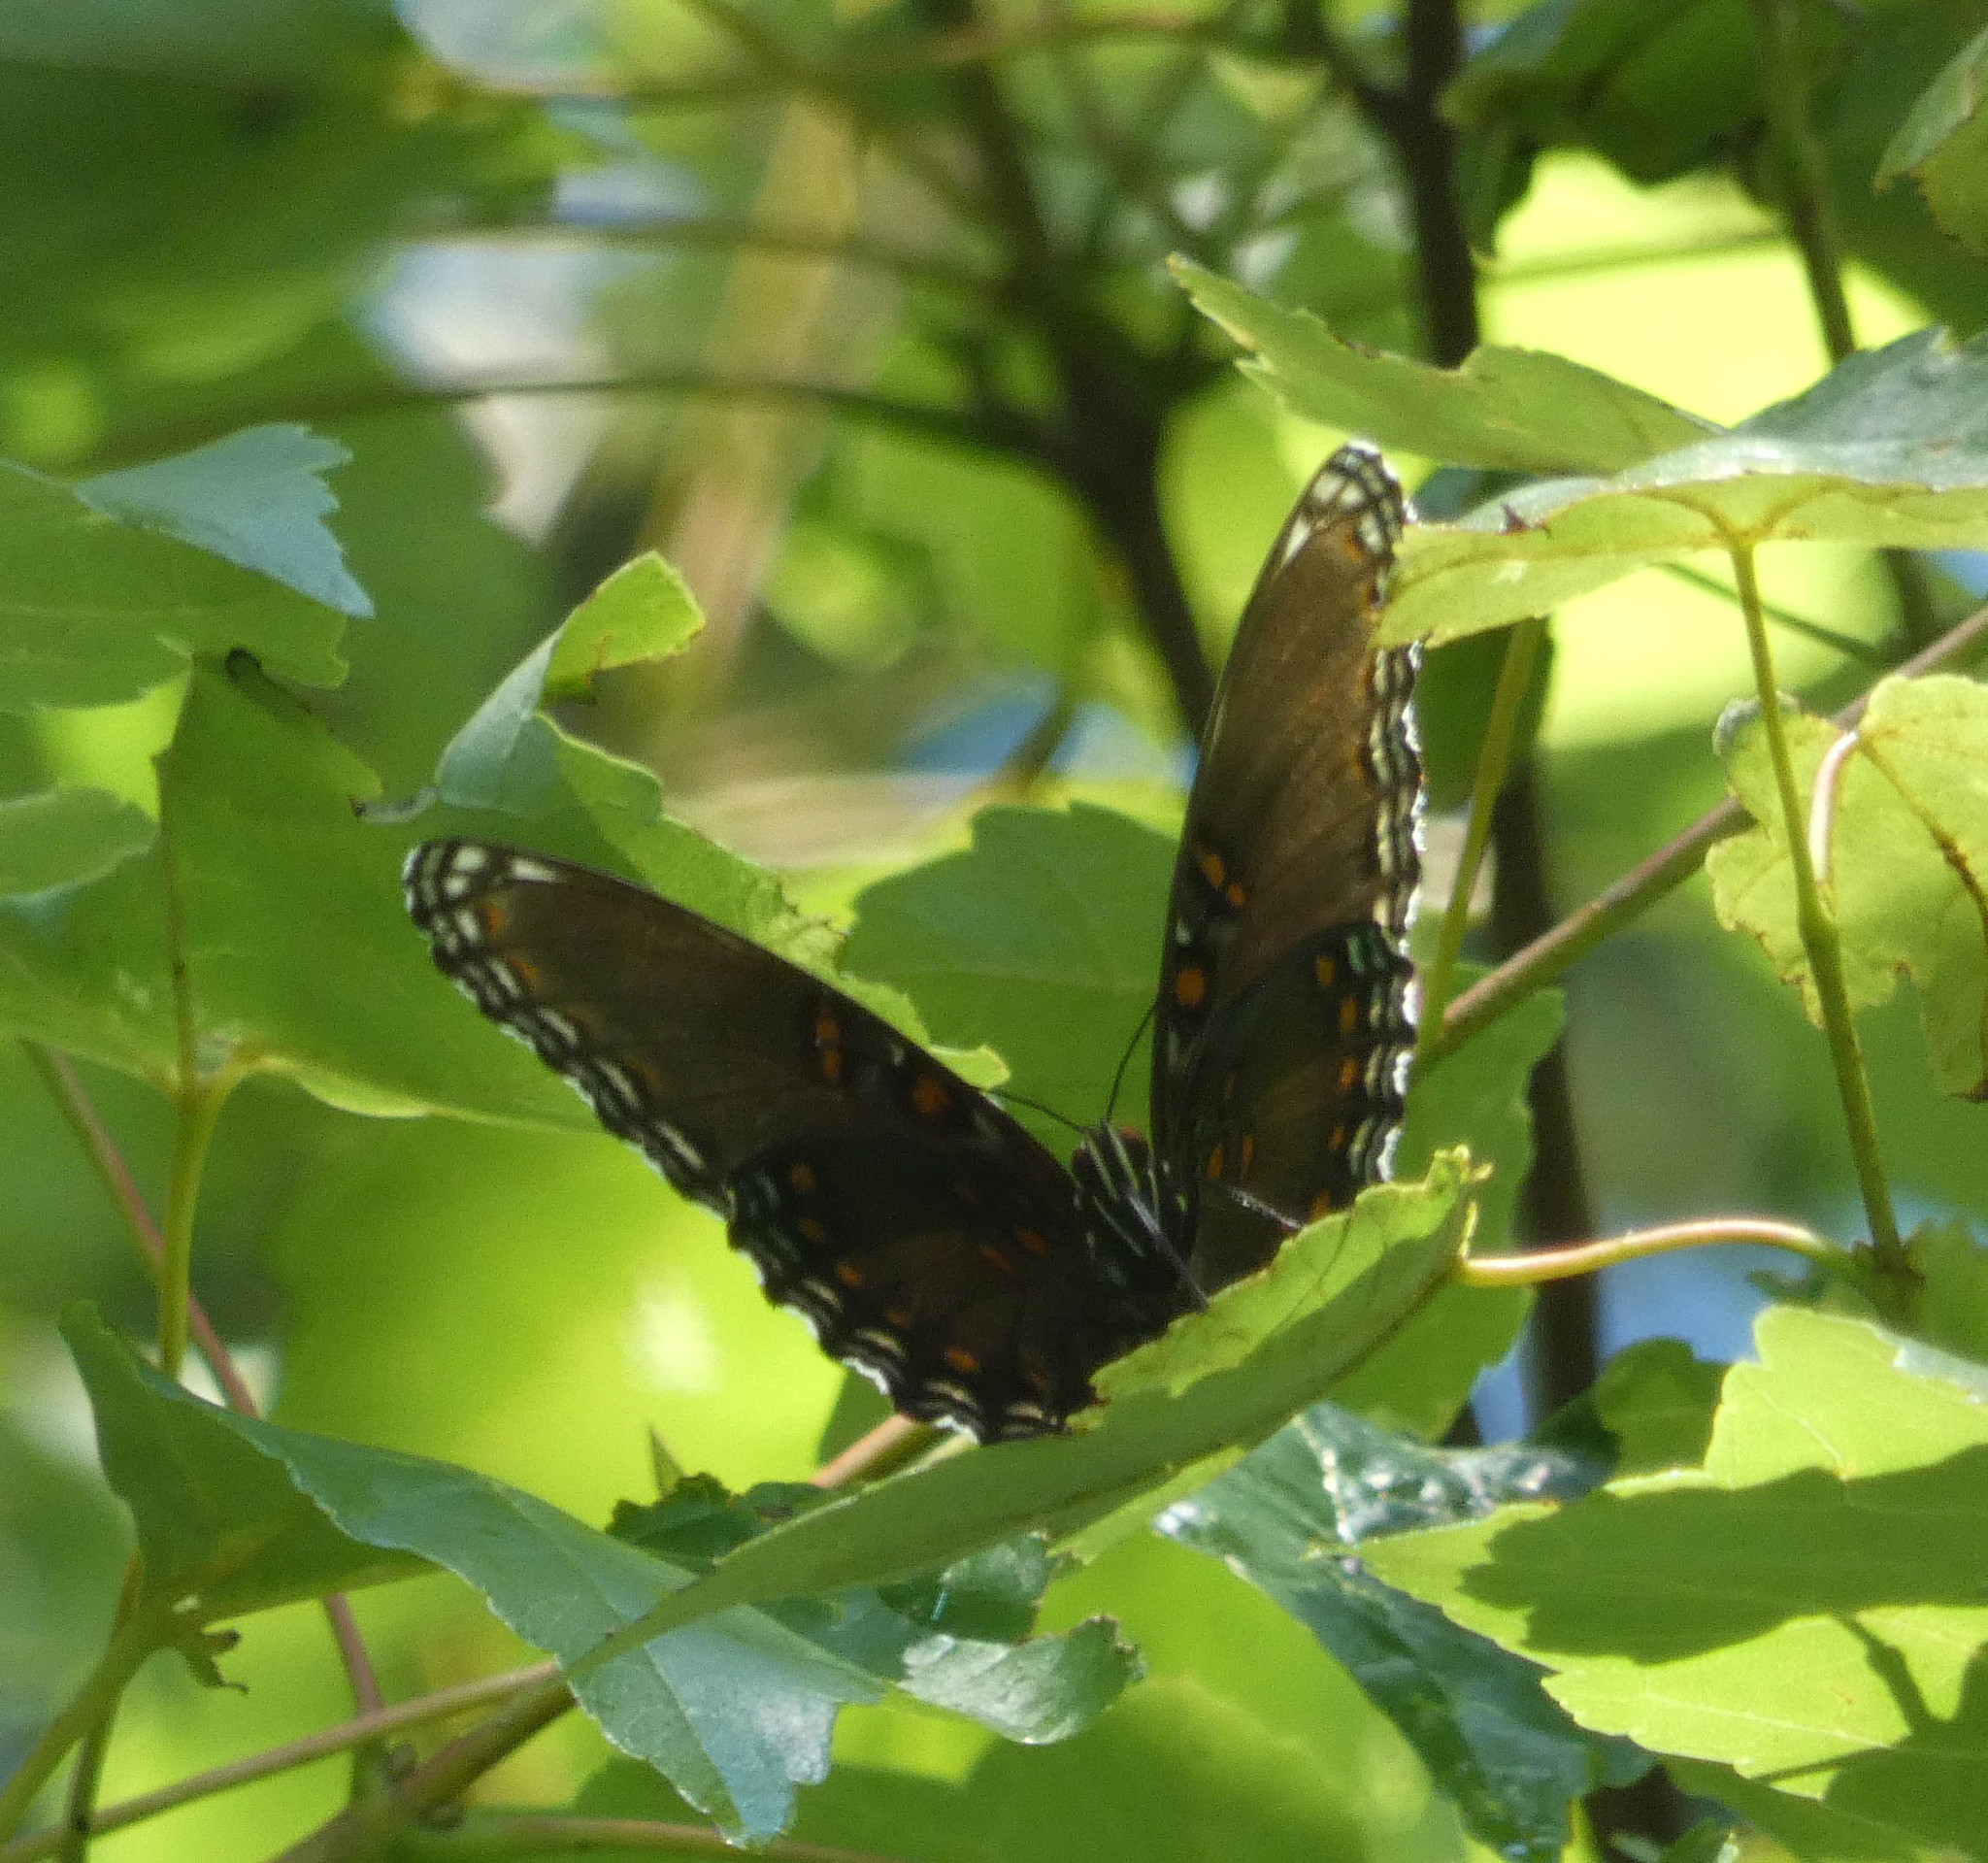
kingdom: Animalia
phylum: Arthropoda
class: Insecta
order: Lepidoptera
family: Nymphalidae
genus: Limenitis
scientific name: Limenitis astyanax
